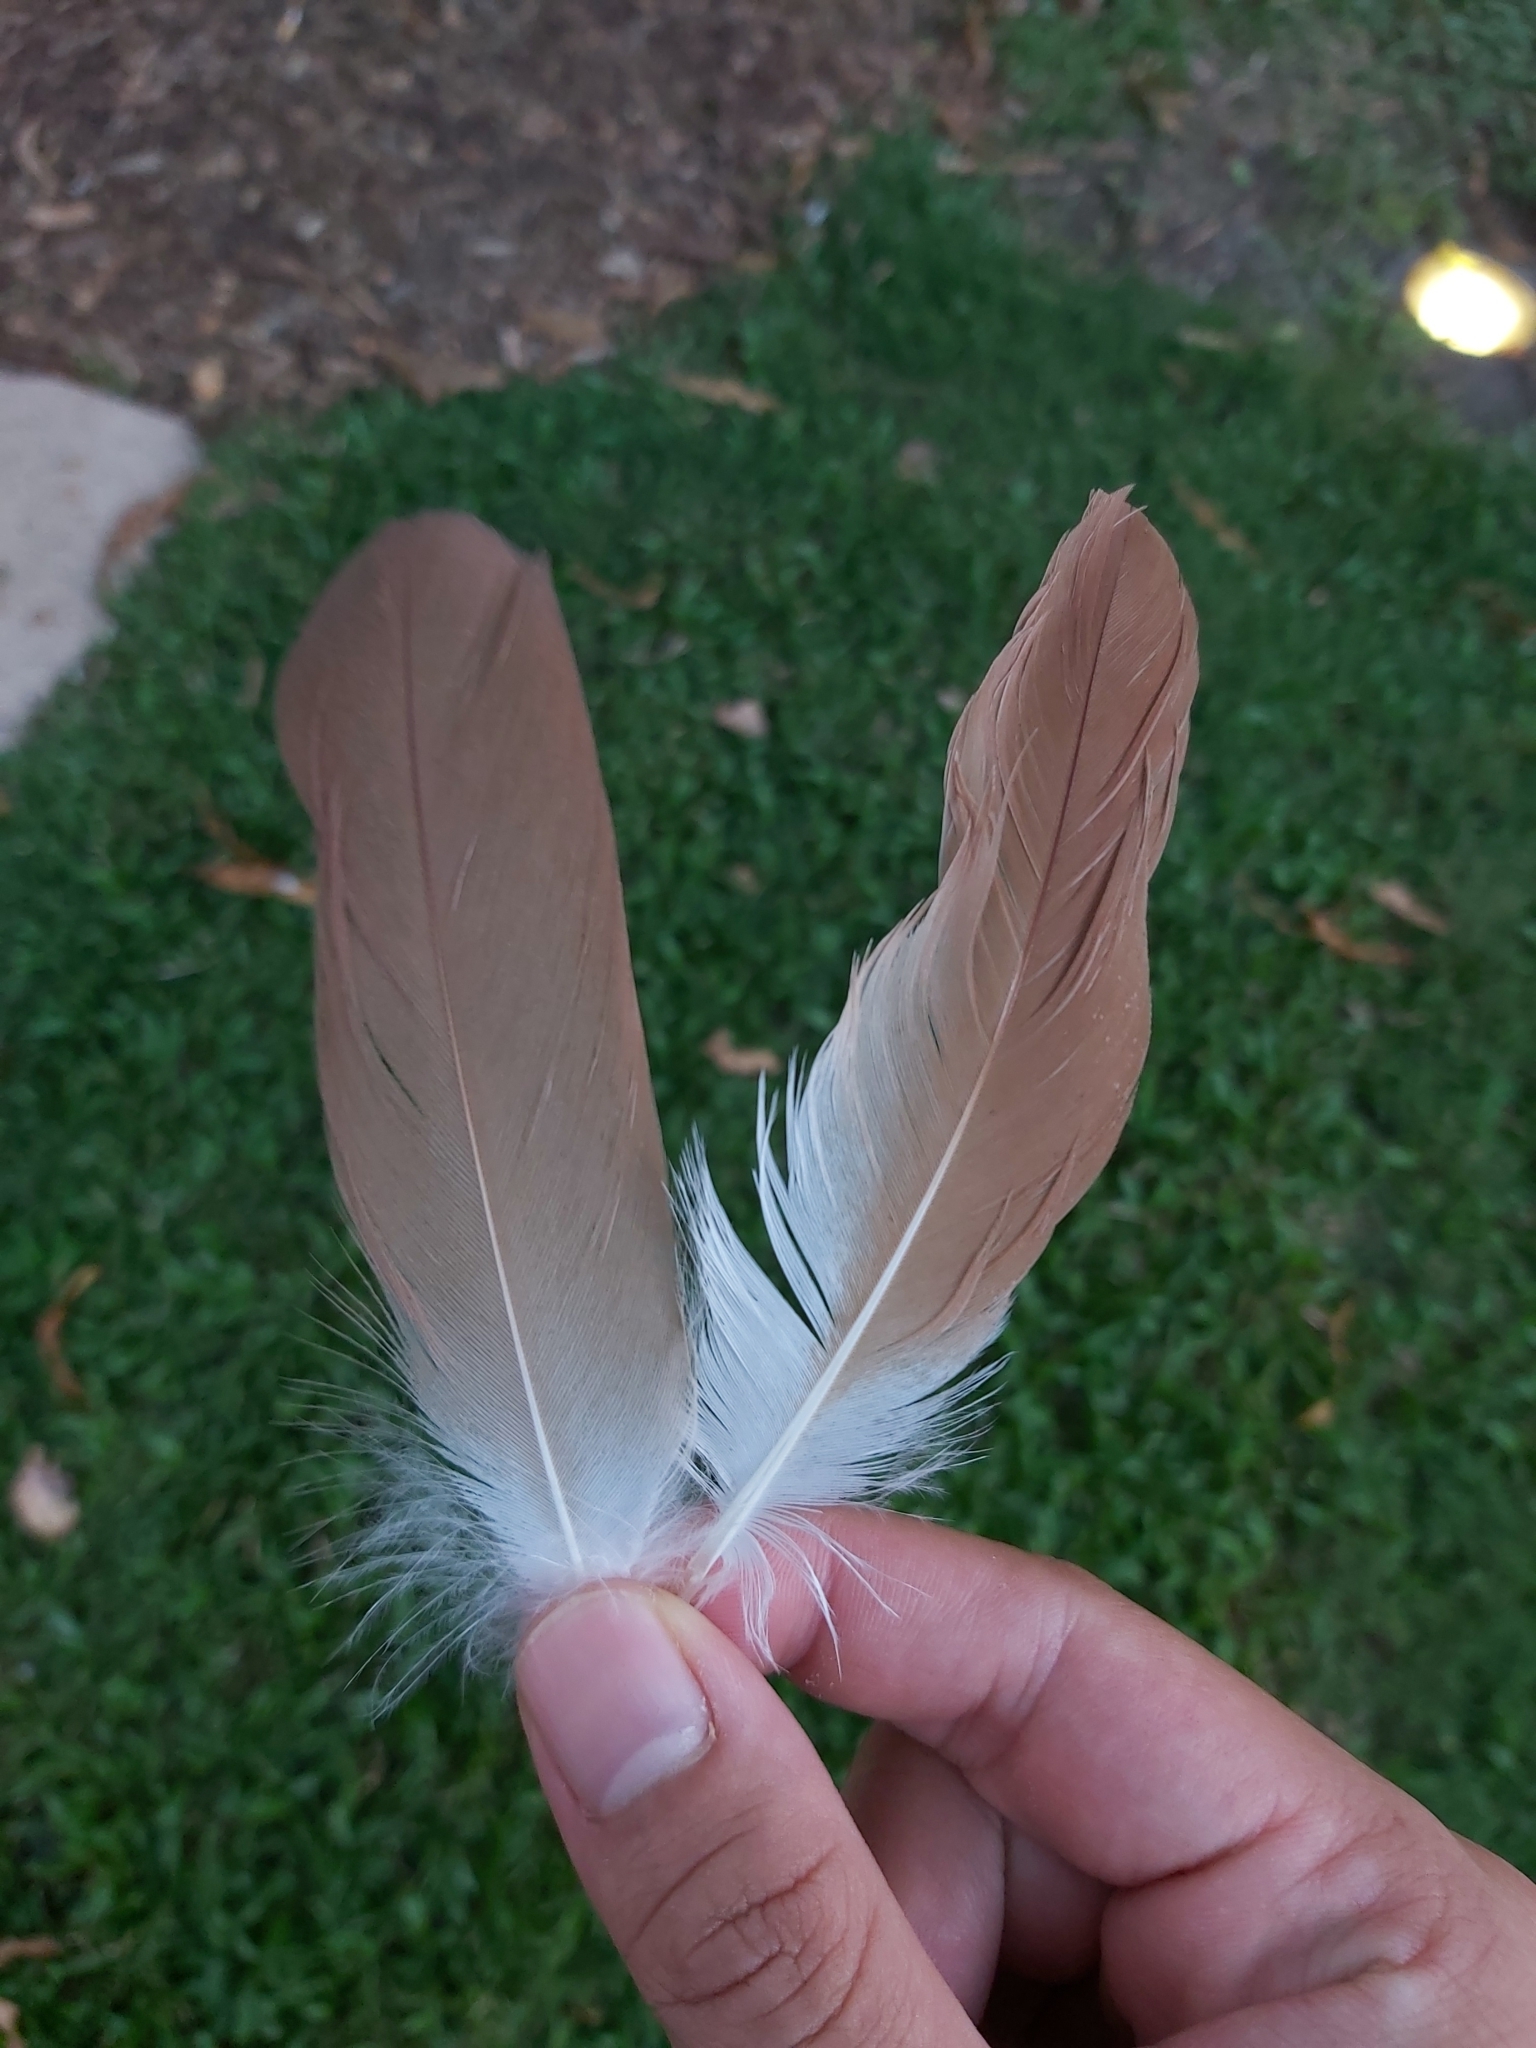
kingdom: Animalia
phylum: Chordata
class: Aves
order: Pelecaniformes
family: Ardeidae
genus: Nycticorax
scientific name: Nycticorax caledonicus
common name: Rufous night-heron
